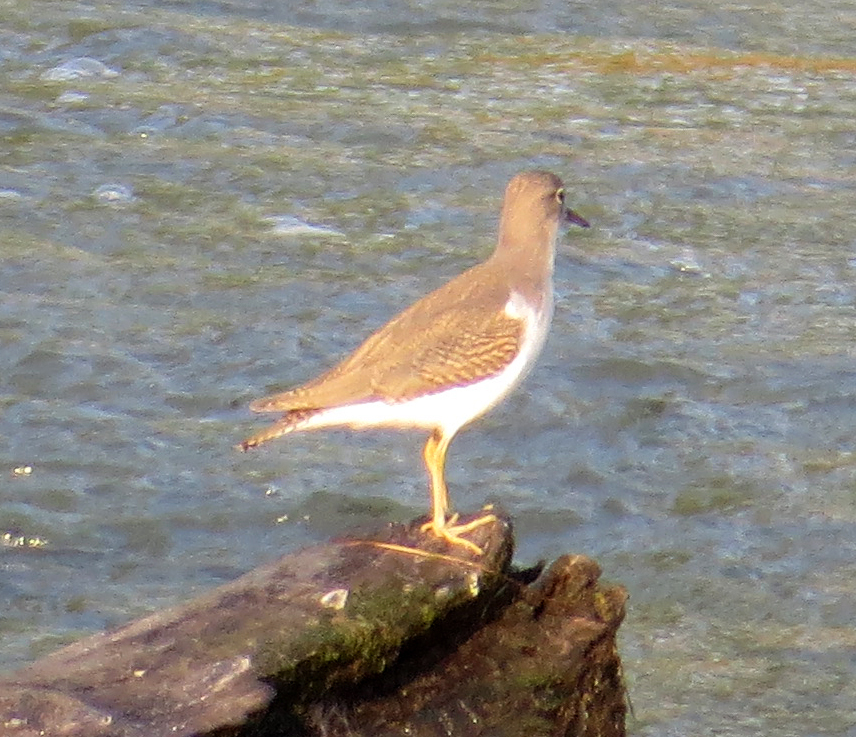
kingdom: Animalia
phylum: Chordata
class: Aves
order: Charadriiformes
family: Scolopacidae
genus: Actitis
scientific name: Actitis macularius
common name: Spotted sandpiper
